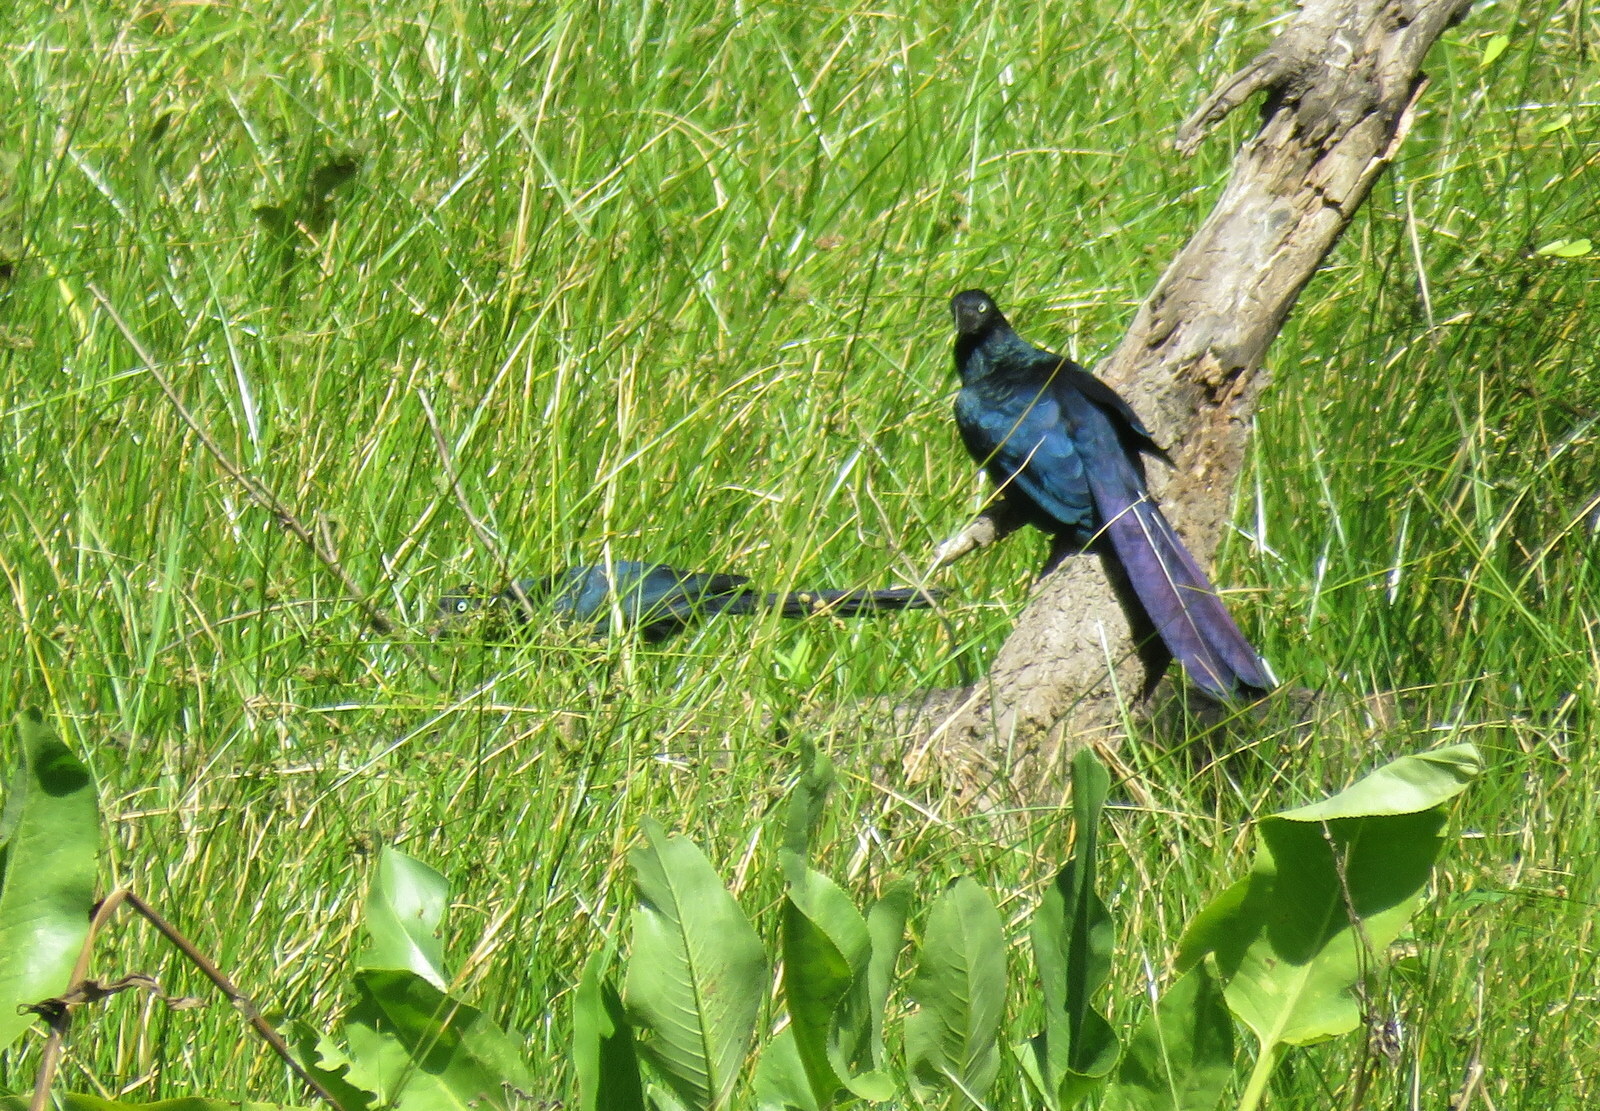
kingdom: Animalia
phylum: Chordata
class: Aves
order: Cuculiformes
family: Cuculidae
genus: Crotophaga
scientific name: Crotophaga major
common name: Greater ani
